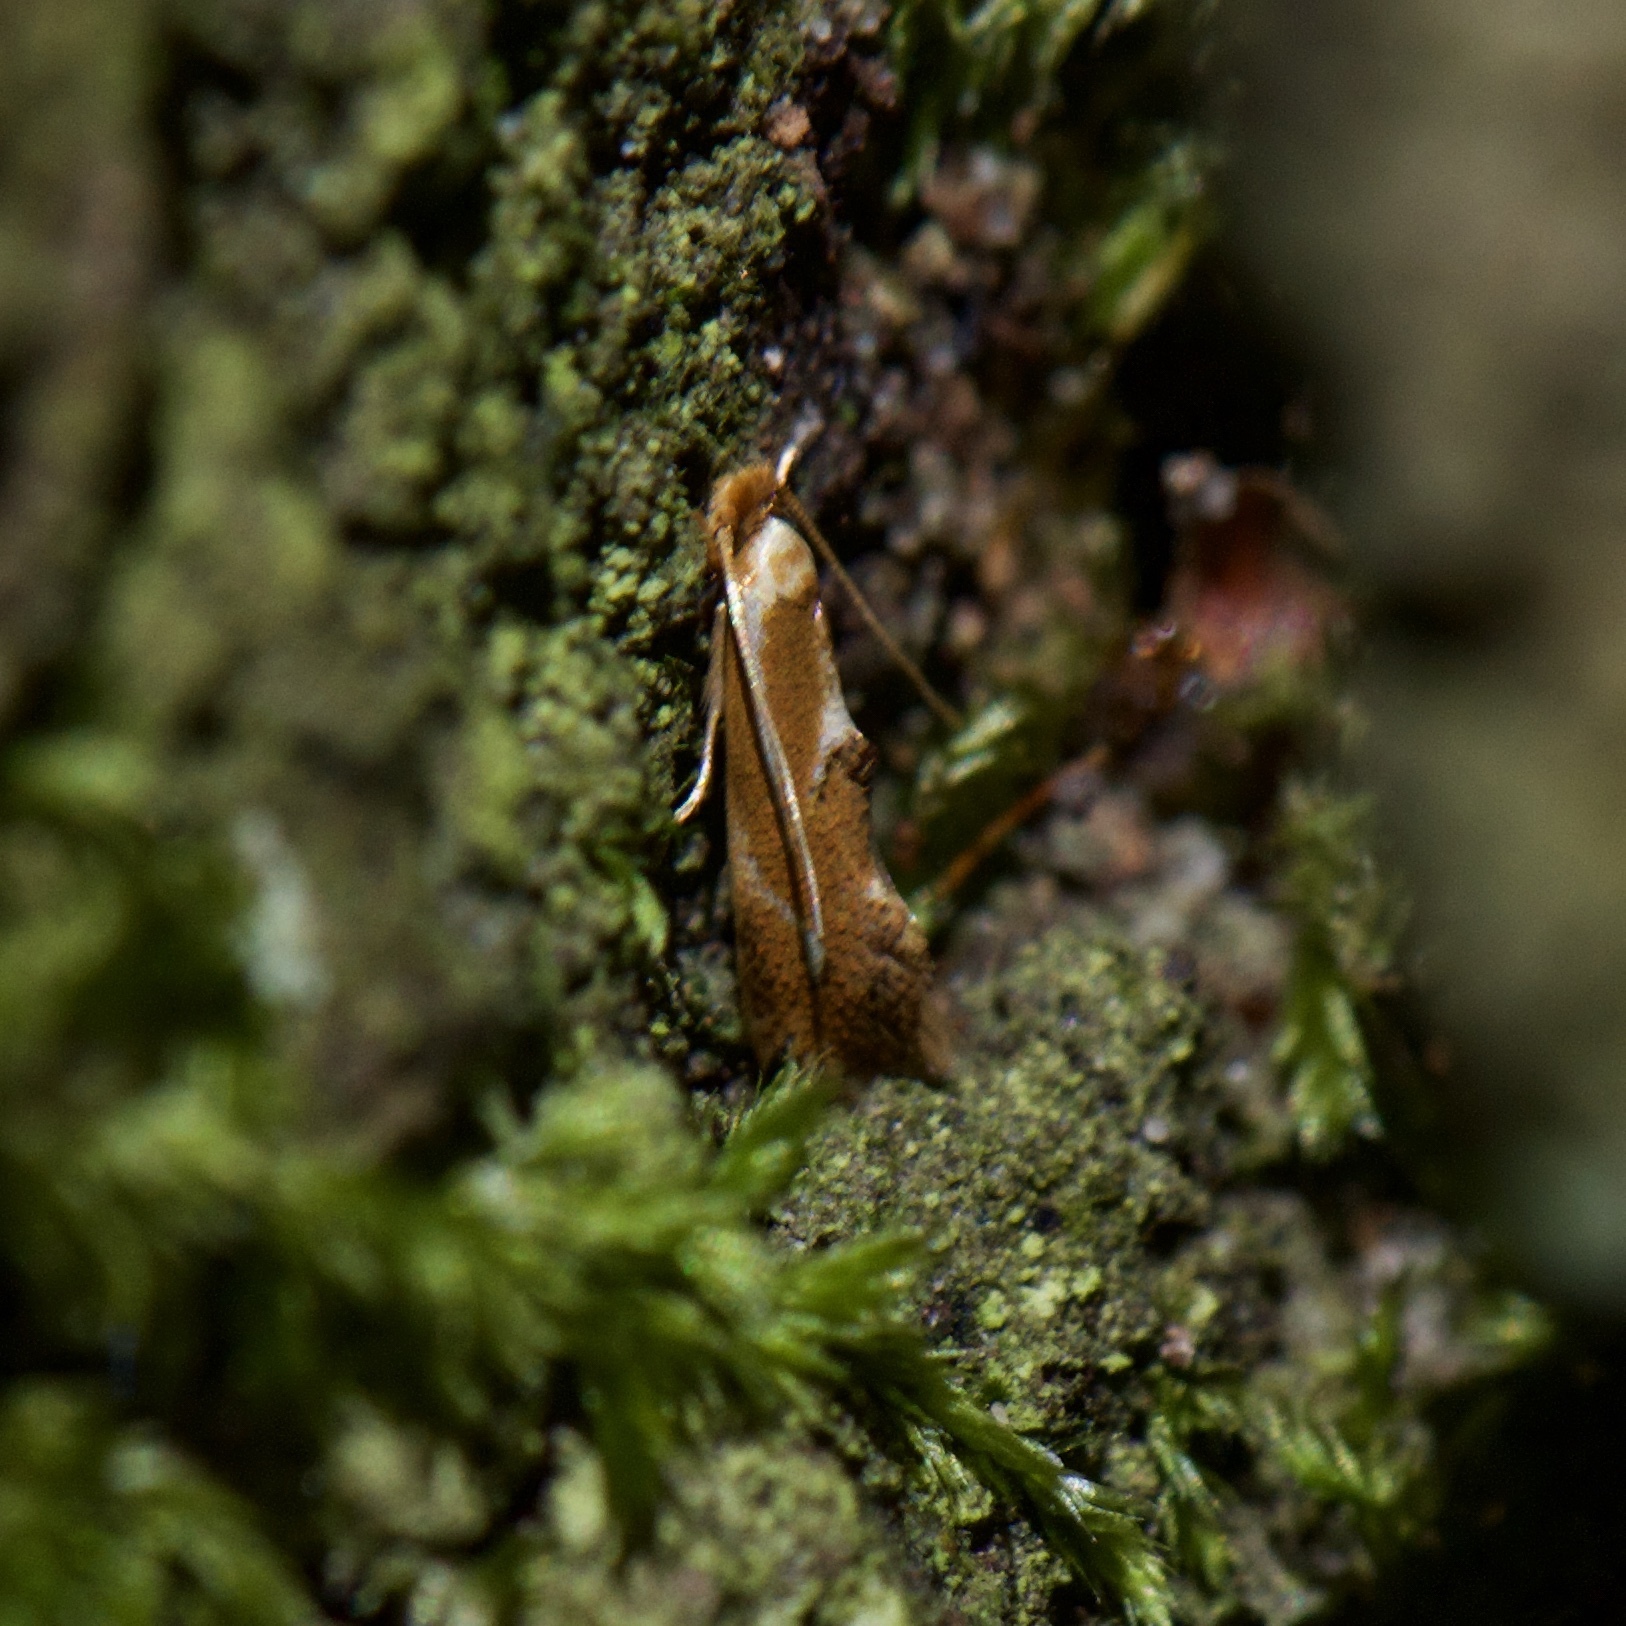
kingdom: Animalia
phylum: Arthropoda
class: Insecta
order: Lepidoptera
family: Lyonetiidae
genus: Philonome
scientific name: Philonome clemensella
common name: Clemen's philonome moth
